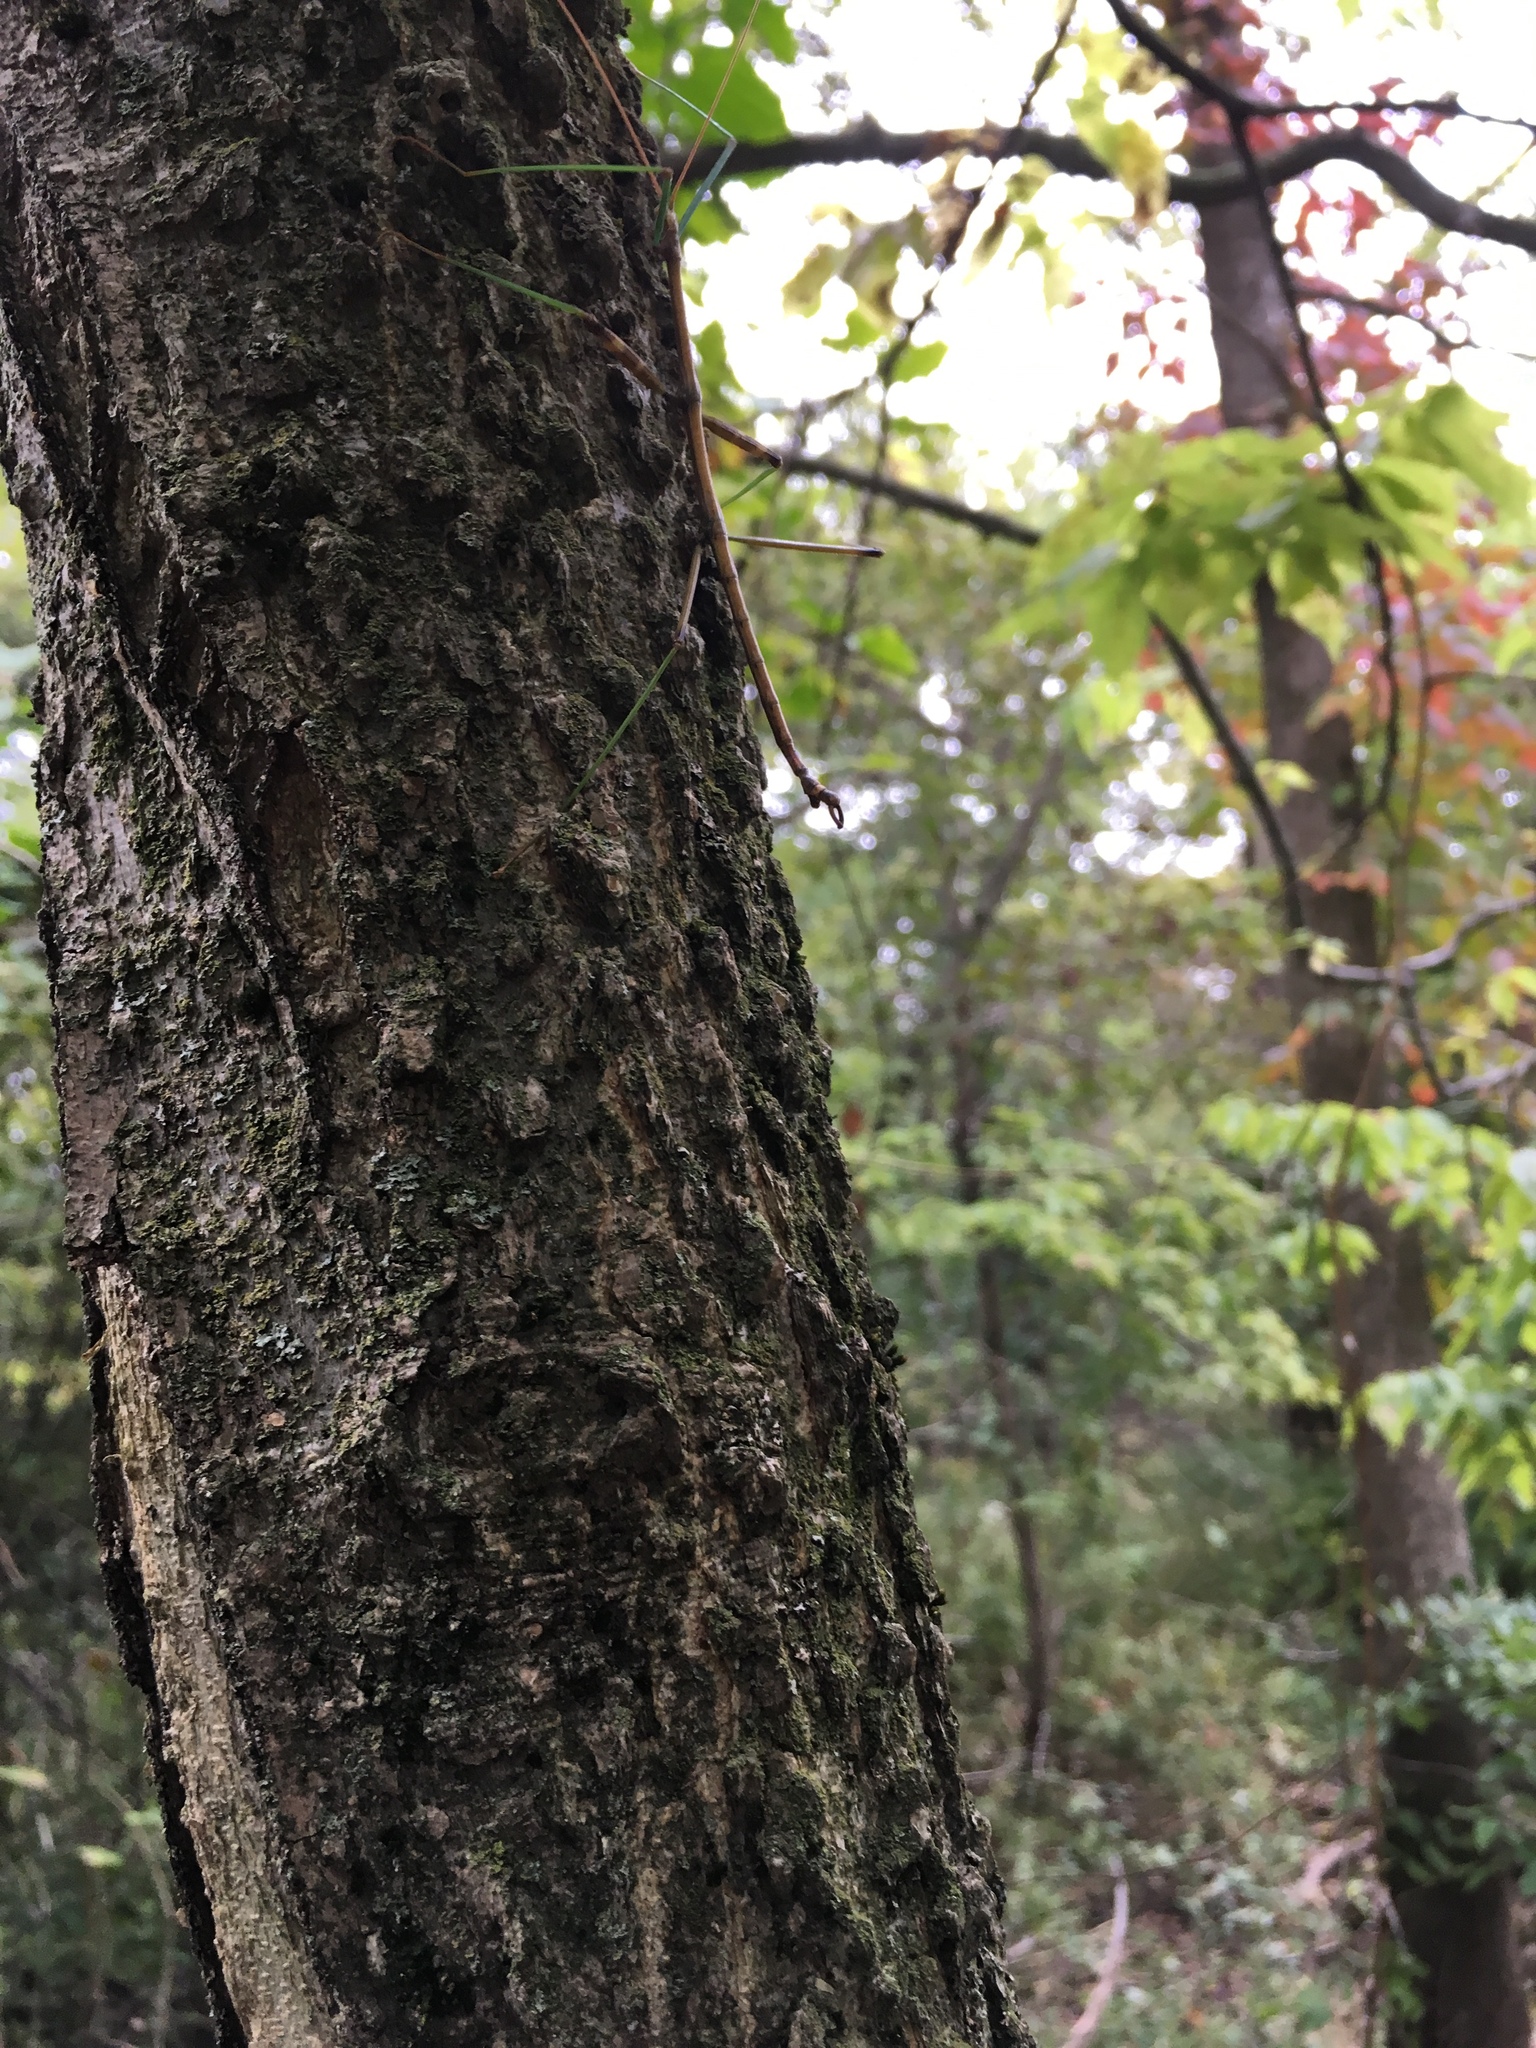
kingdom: Animalia
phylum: Arthropoda
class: Insecta
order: Phasmida
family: Diapheromeridae
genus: Diapheromera
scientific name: Diapheromera femorata
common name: Common american walkingstick
